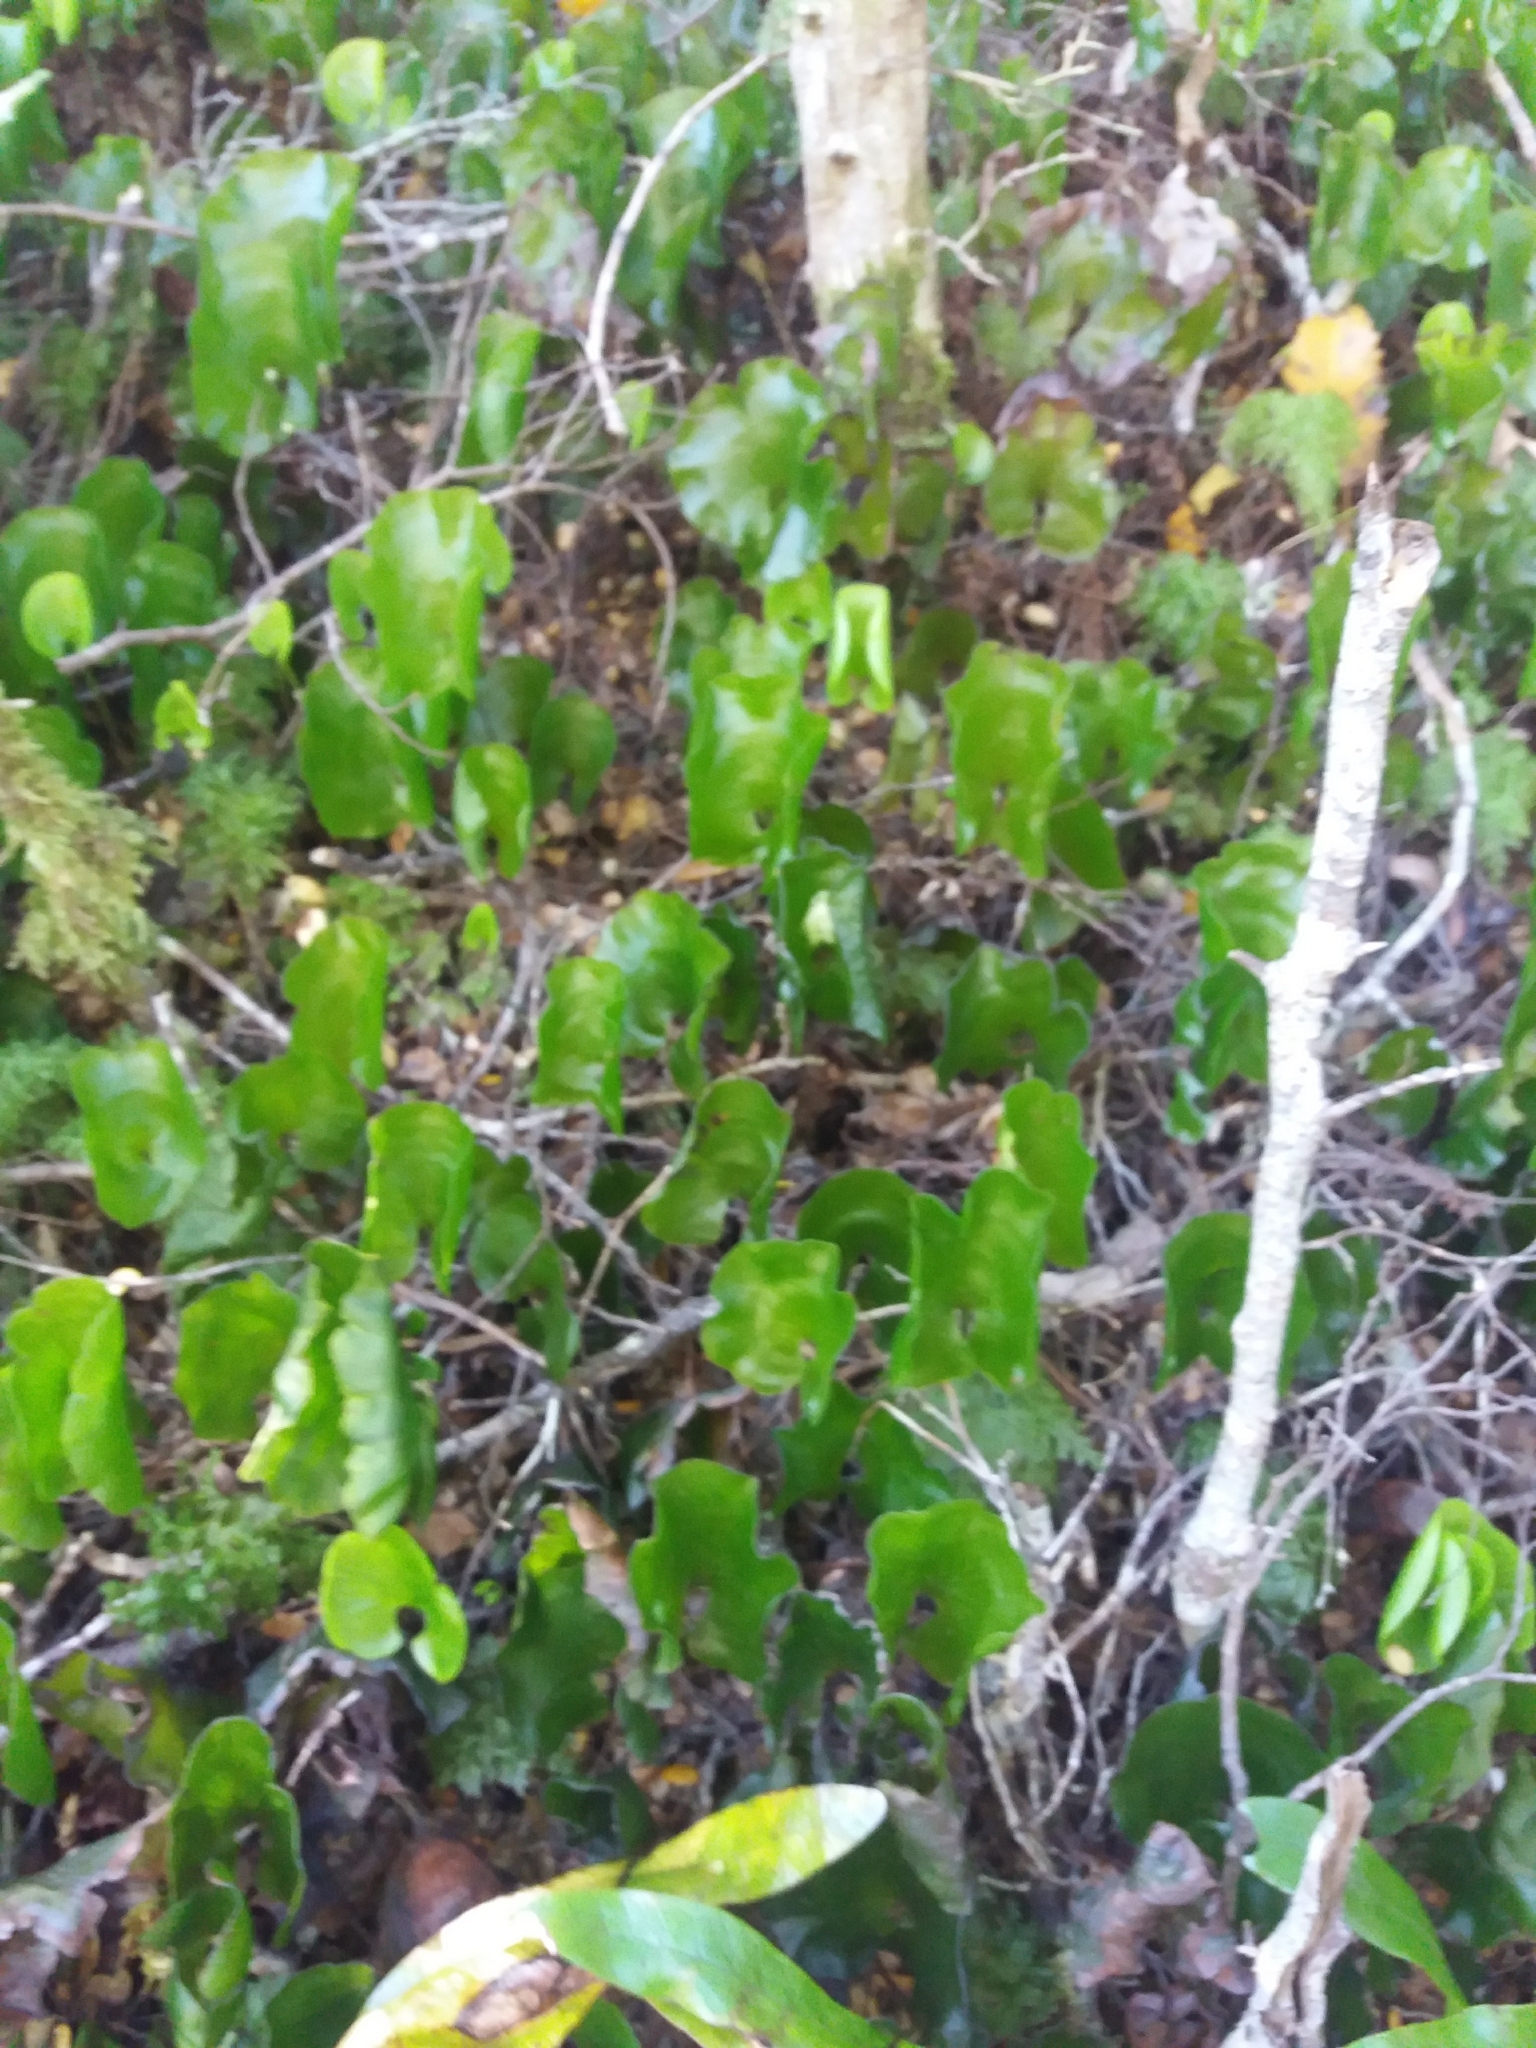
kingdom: Plantae
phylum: Tracheophyta
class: Polypodiopsida
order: Hymenophyllales
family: Hymenophyllaceae
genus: Hymenophyllum
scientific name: Hymenophyllum nephrophyllum
